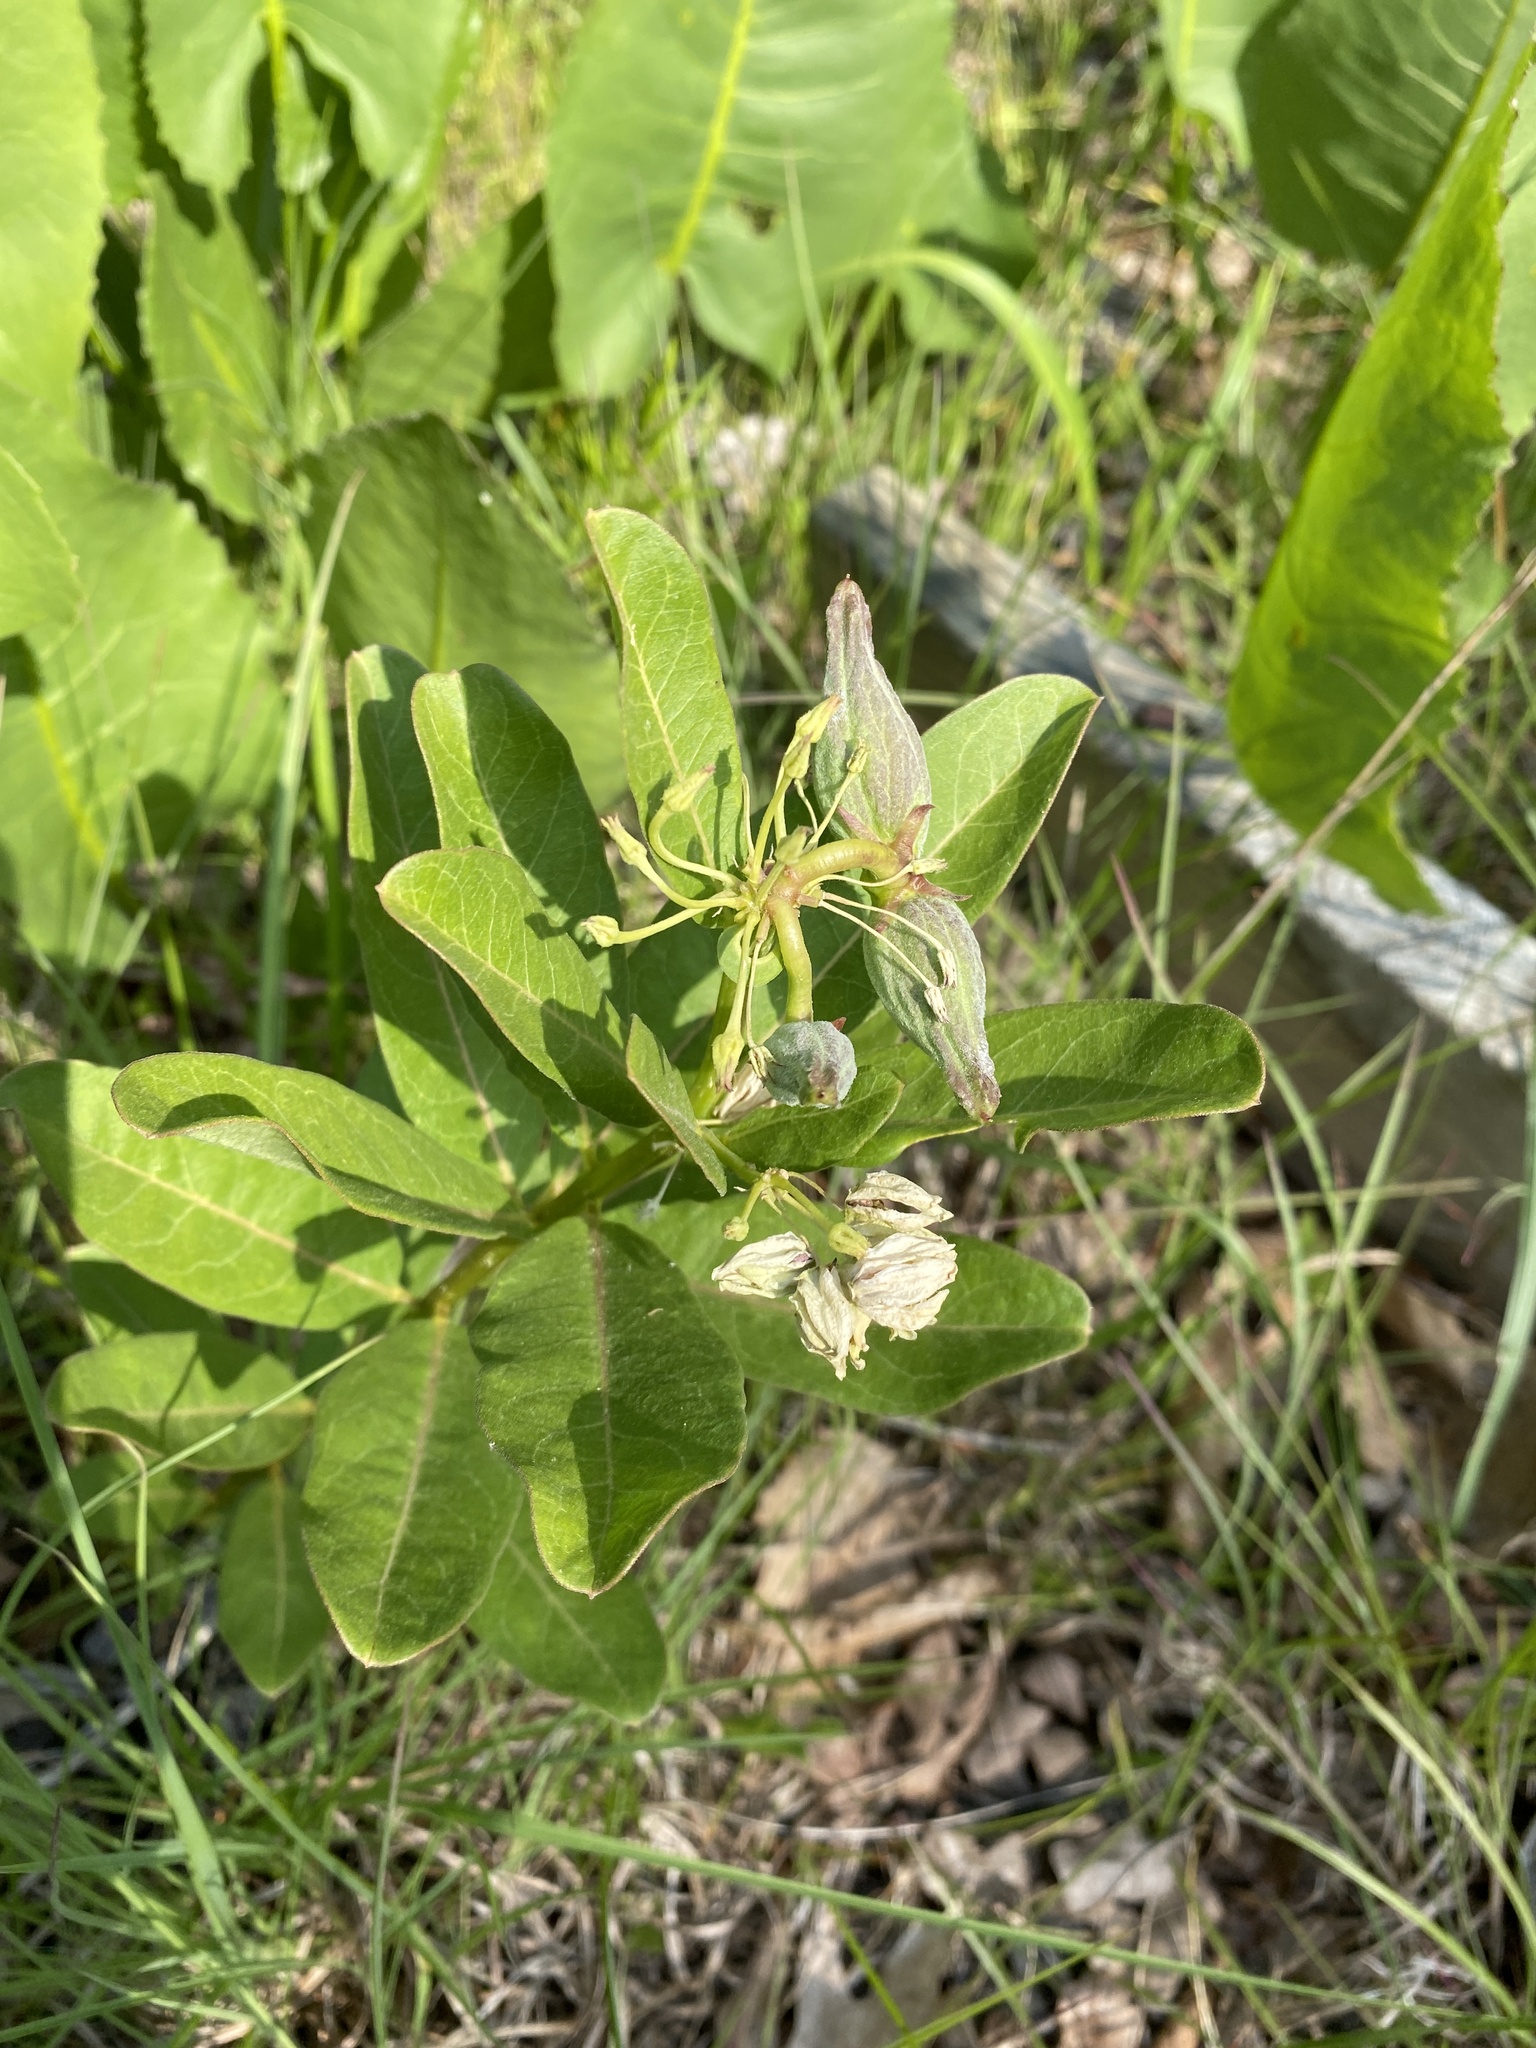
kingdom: Plantae
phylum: Tracheophyta
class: Magnoliopsida
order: Gentianales
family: Apocynaceae
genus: Asclepias
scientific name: Asclepias viridis
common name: Antelope-horns
